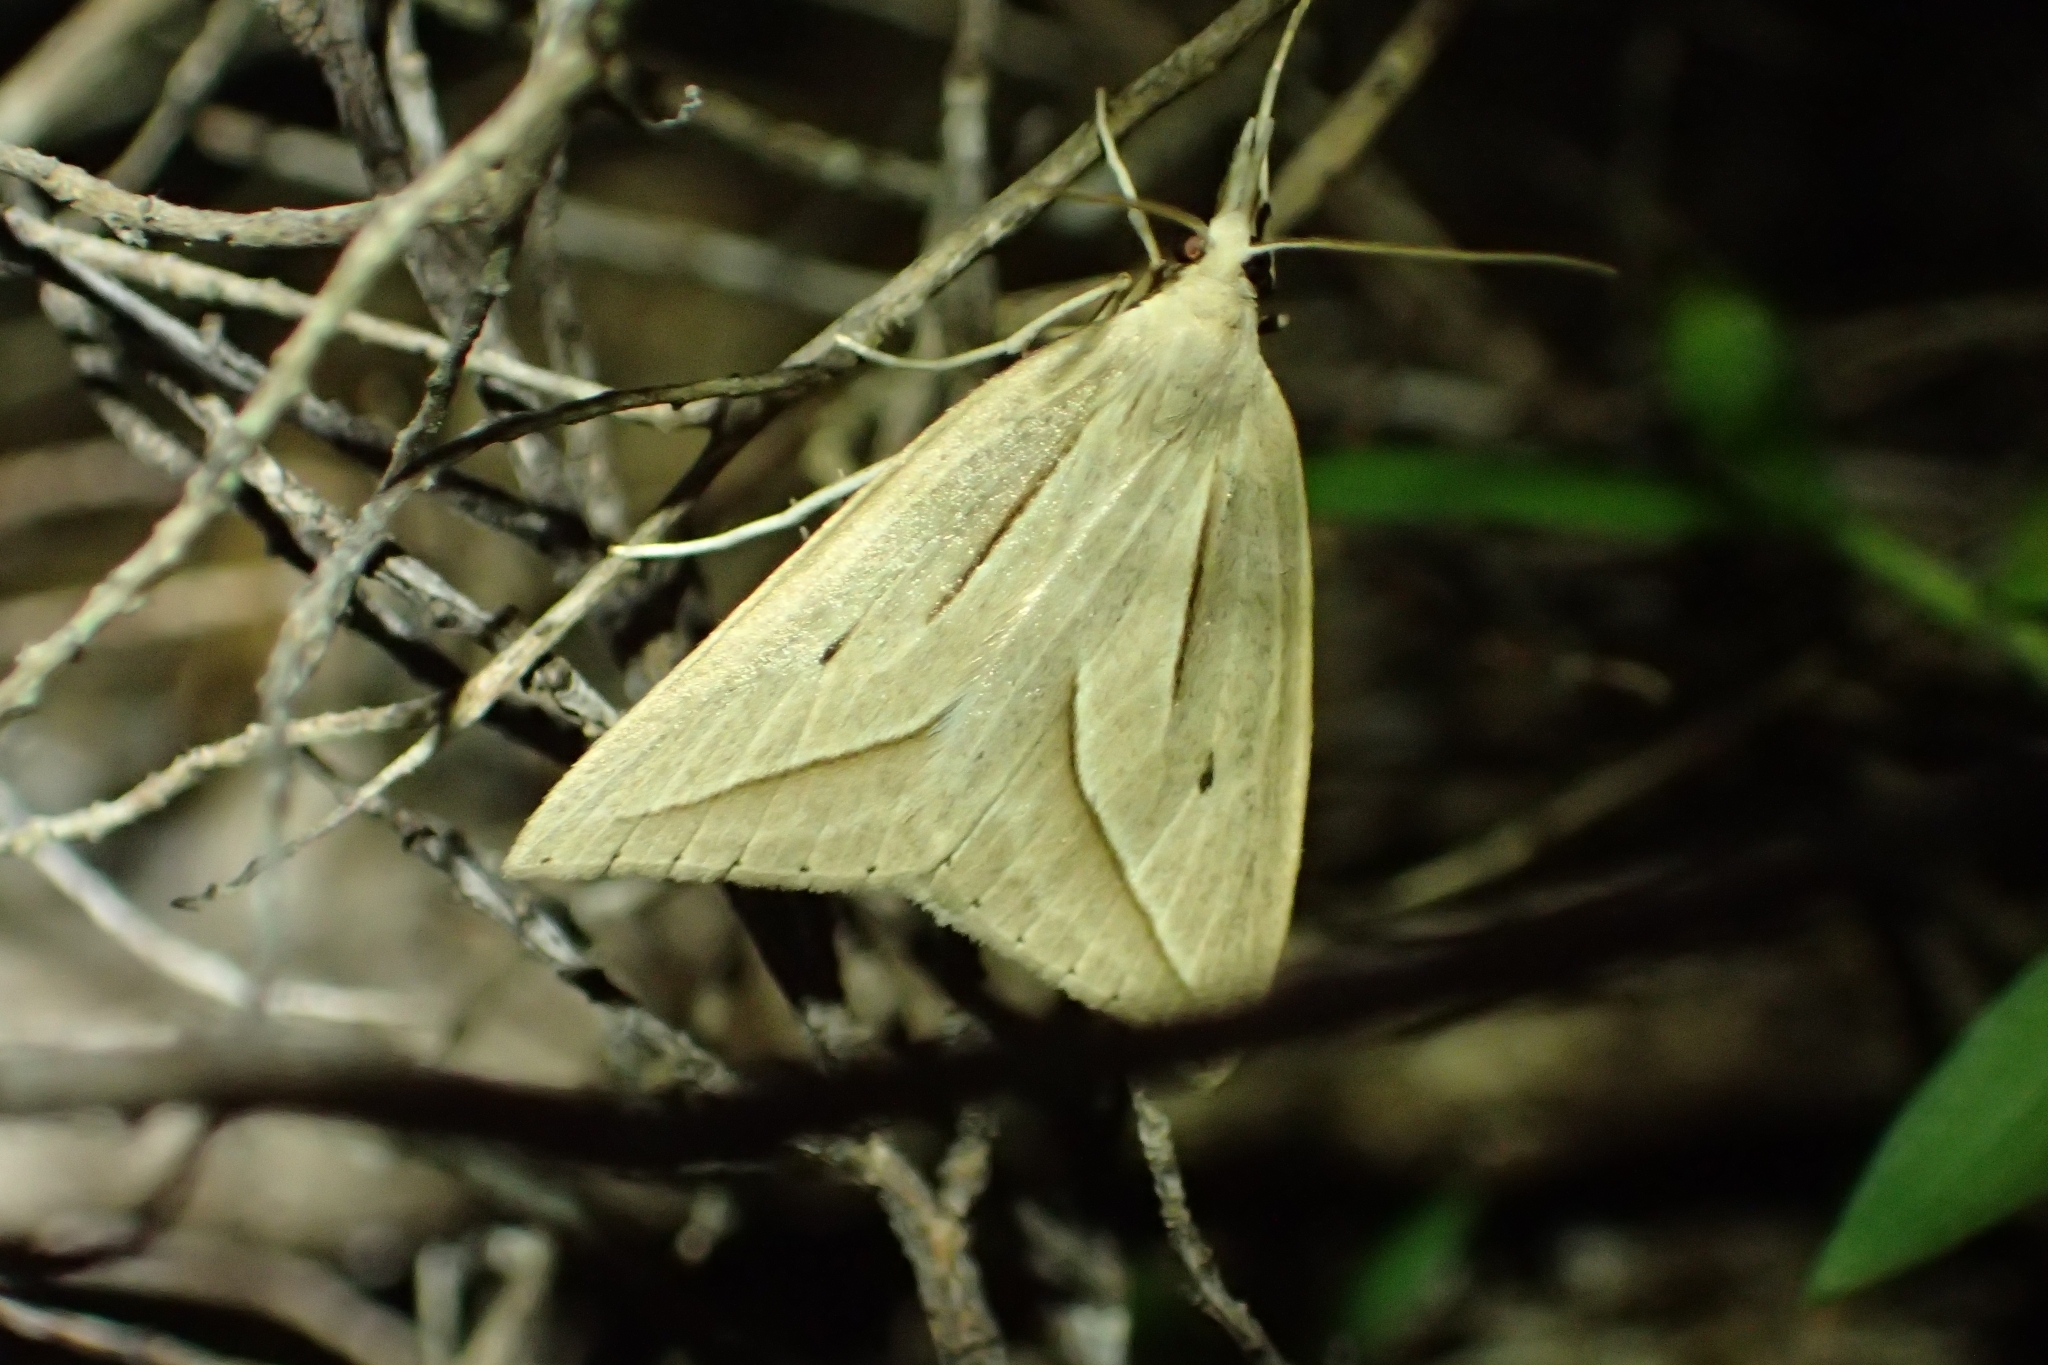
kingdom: Animalia
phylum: Arthropoda
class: Insecta
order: Lepidoptera
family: Geometridae
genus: Samana
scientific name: Samana falcatella
